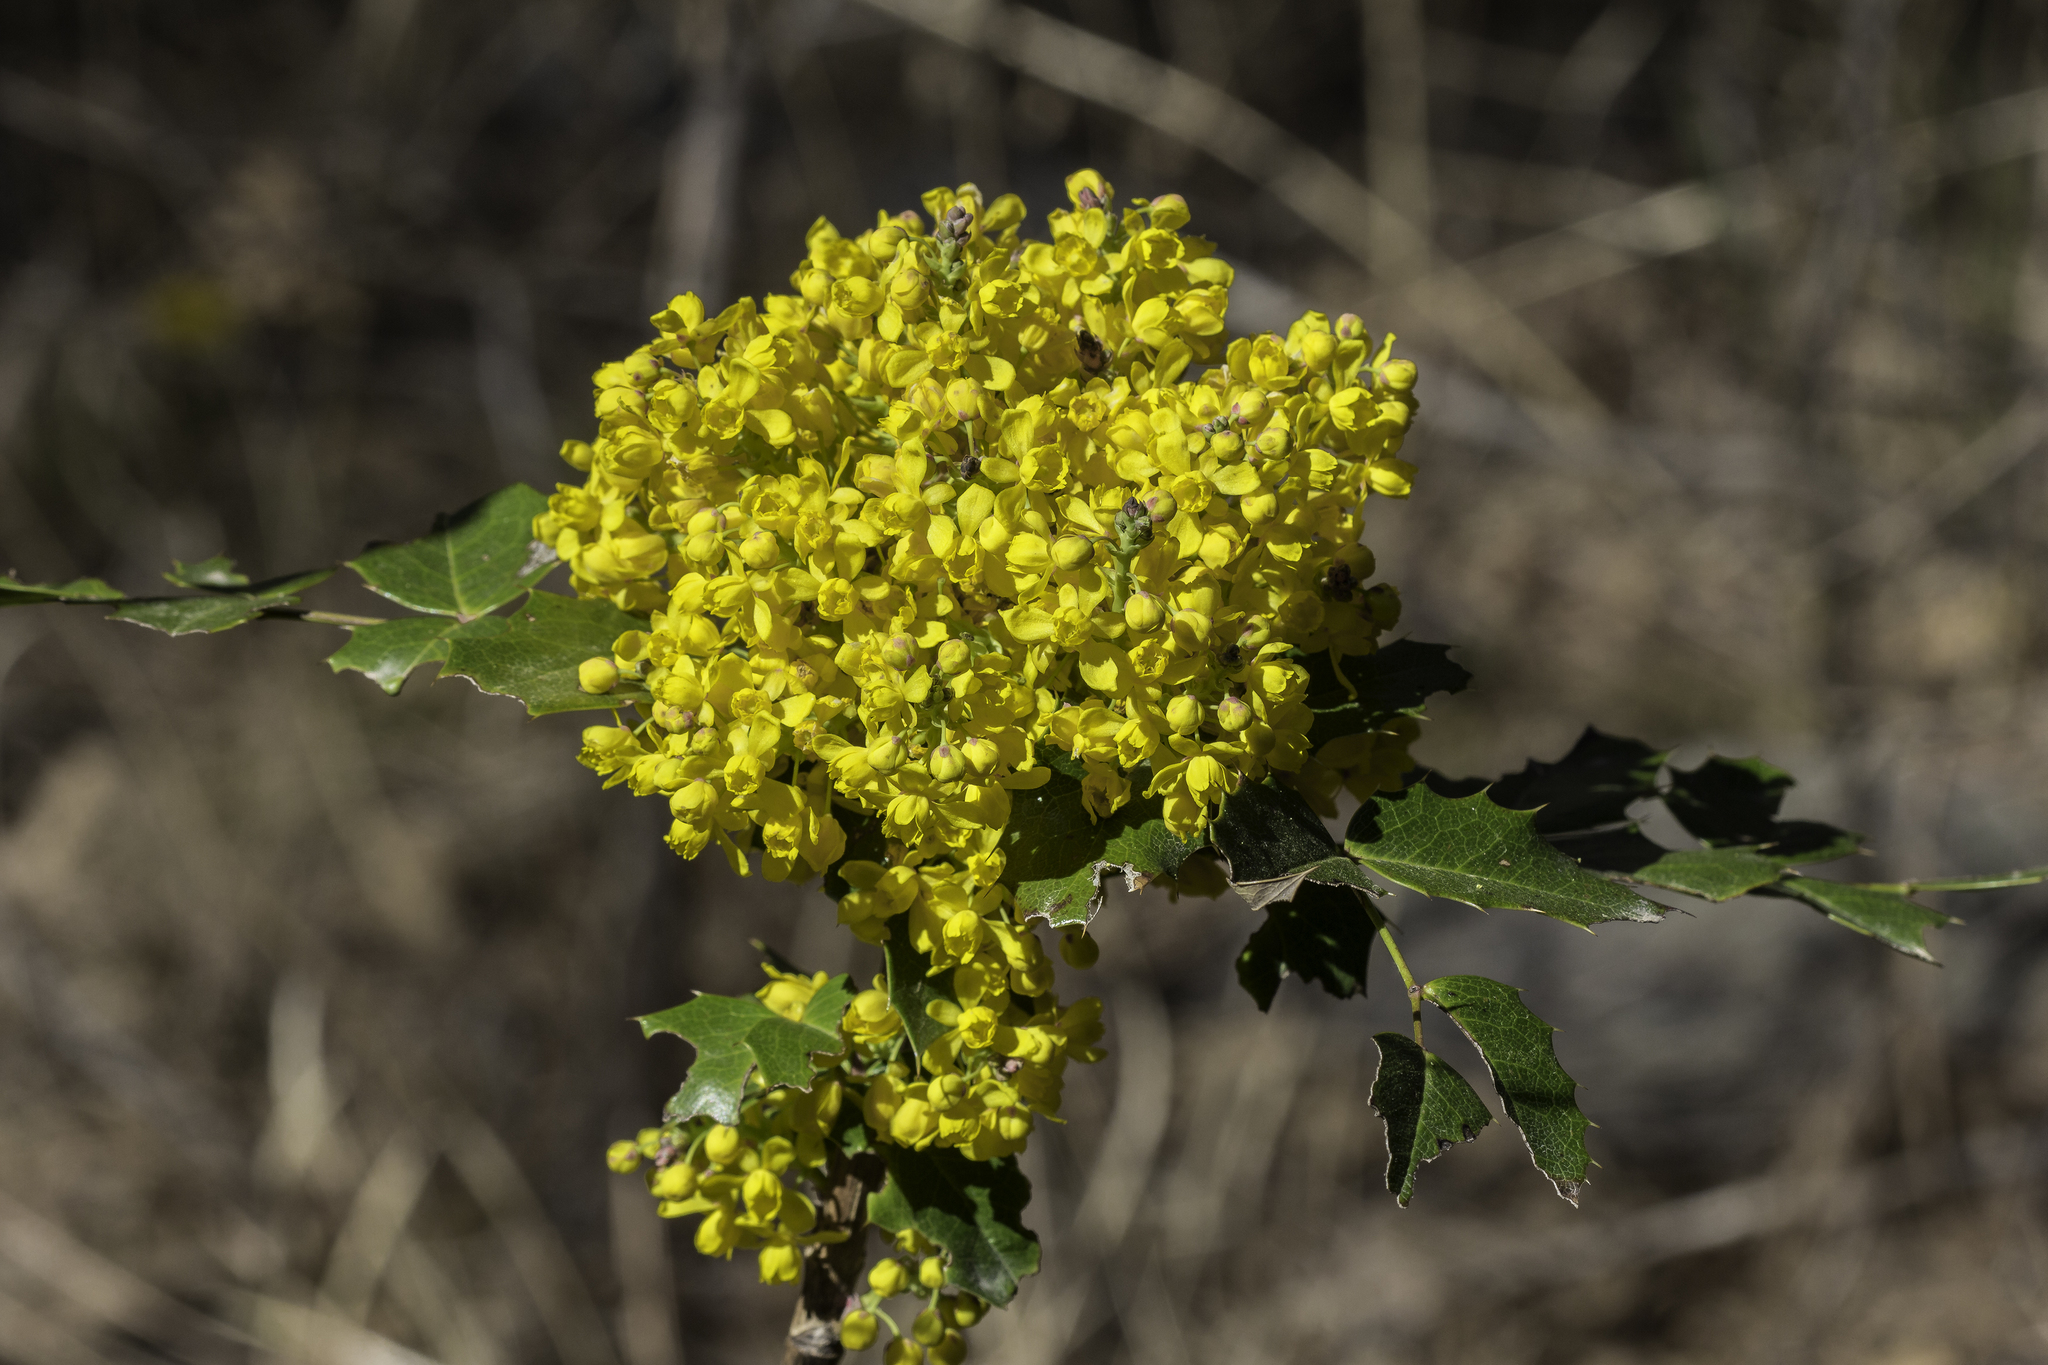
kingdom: Plantae
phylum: Tracheophyta
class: Magnoliopsida
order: Ranunculales
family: Berberidaceae
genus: Mahonia
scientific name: Mahonia aquifolium
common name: Oregon-grape
